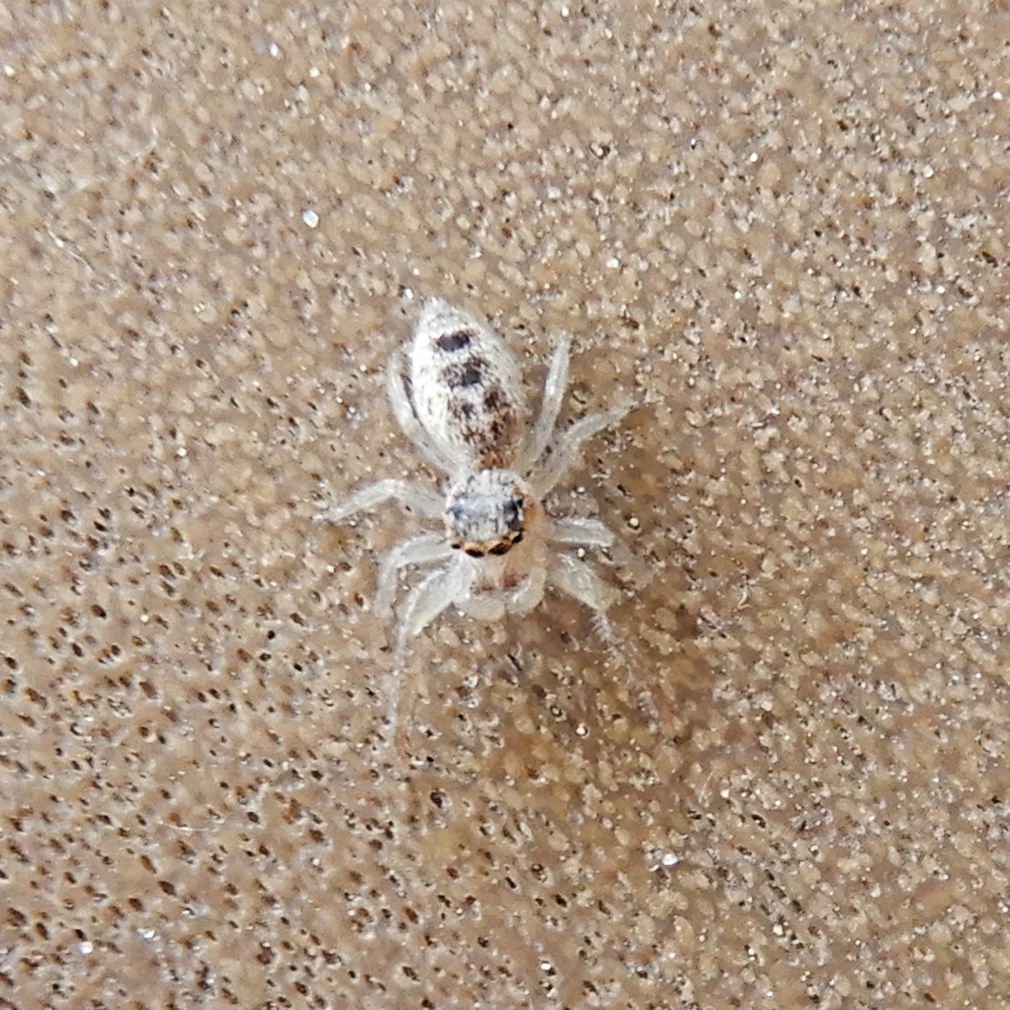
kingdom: Animalia
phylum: Arthropoda
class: Arachnida
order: Araneae
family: Salticidae
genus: Hentzia
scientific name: Hentzia mitrata
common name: White-jawed jumping spider
